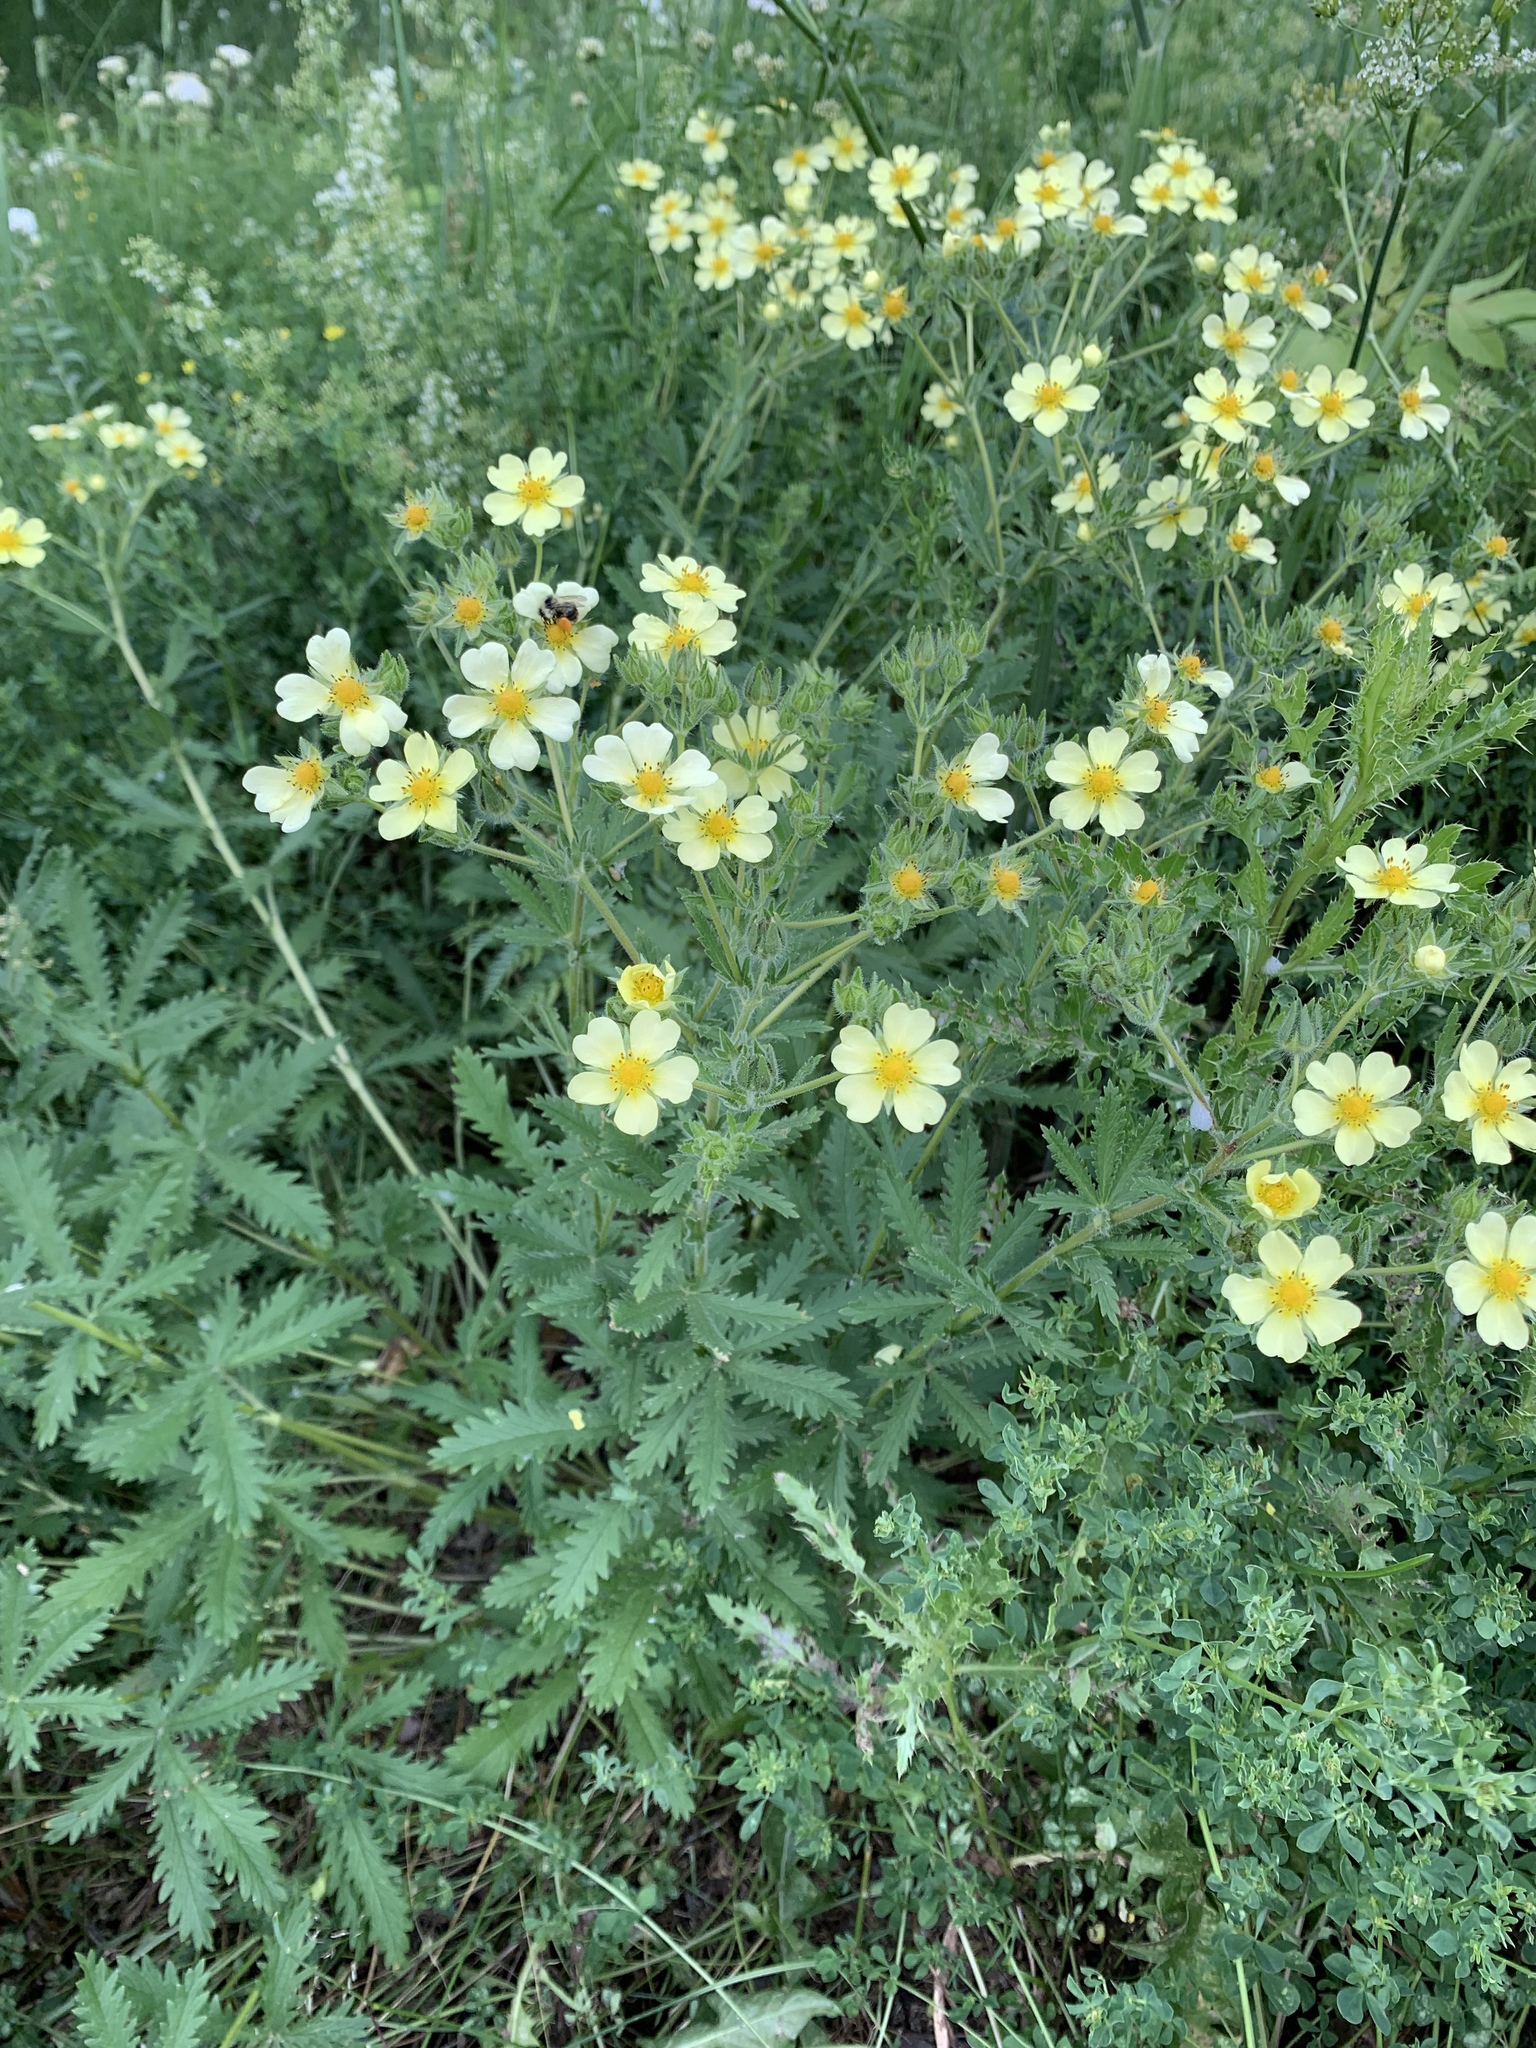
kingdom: Plantae
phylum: Tracheophyta
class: Magnoliopsida
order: Rosales
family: Rosaceae
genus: Potentilla
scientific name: Potentilla recta
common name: Sulphur cinquefoil
